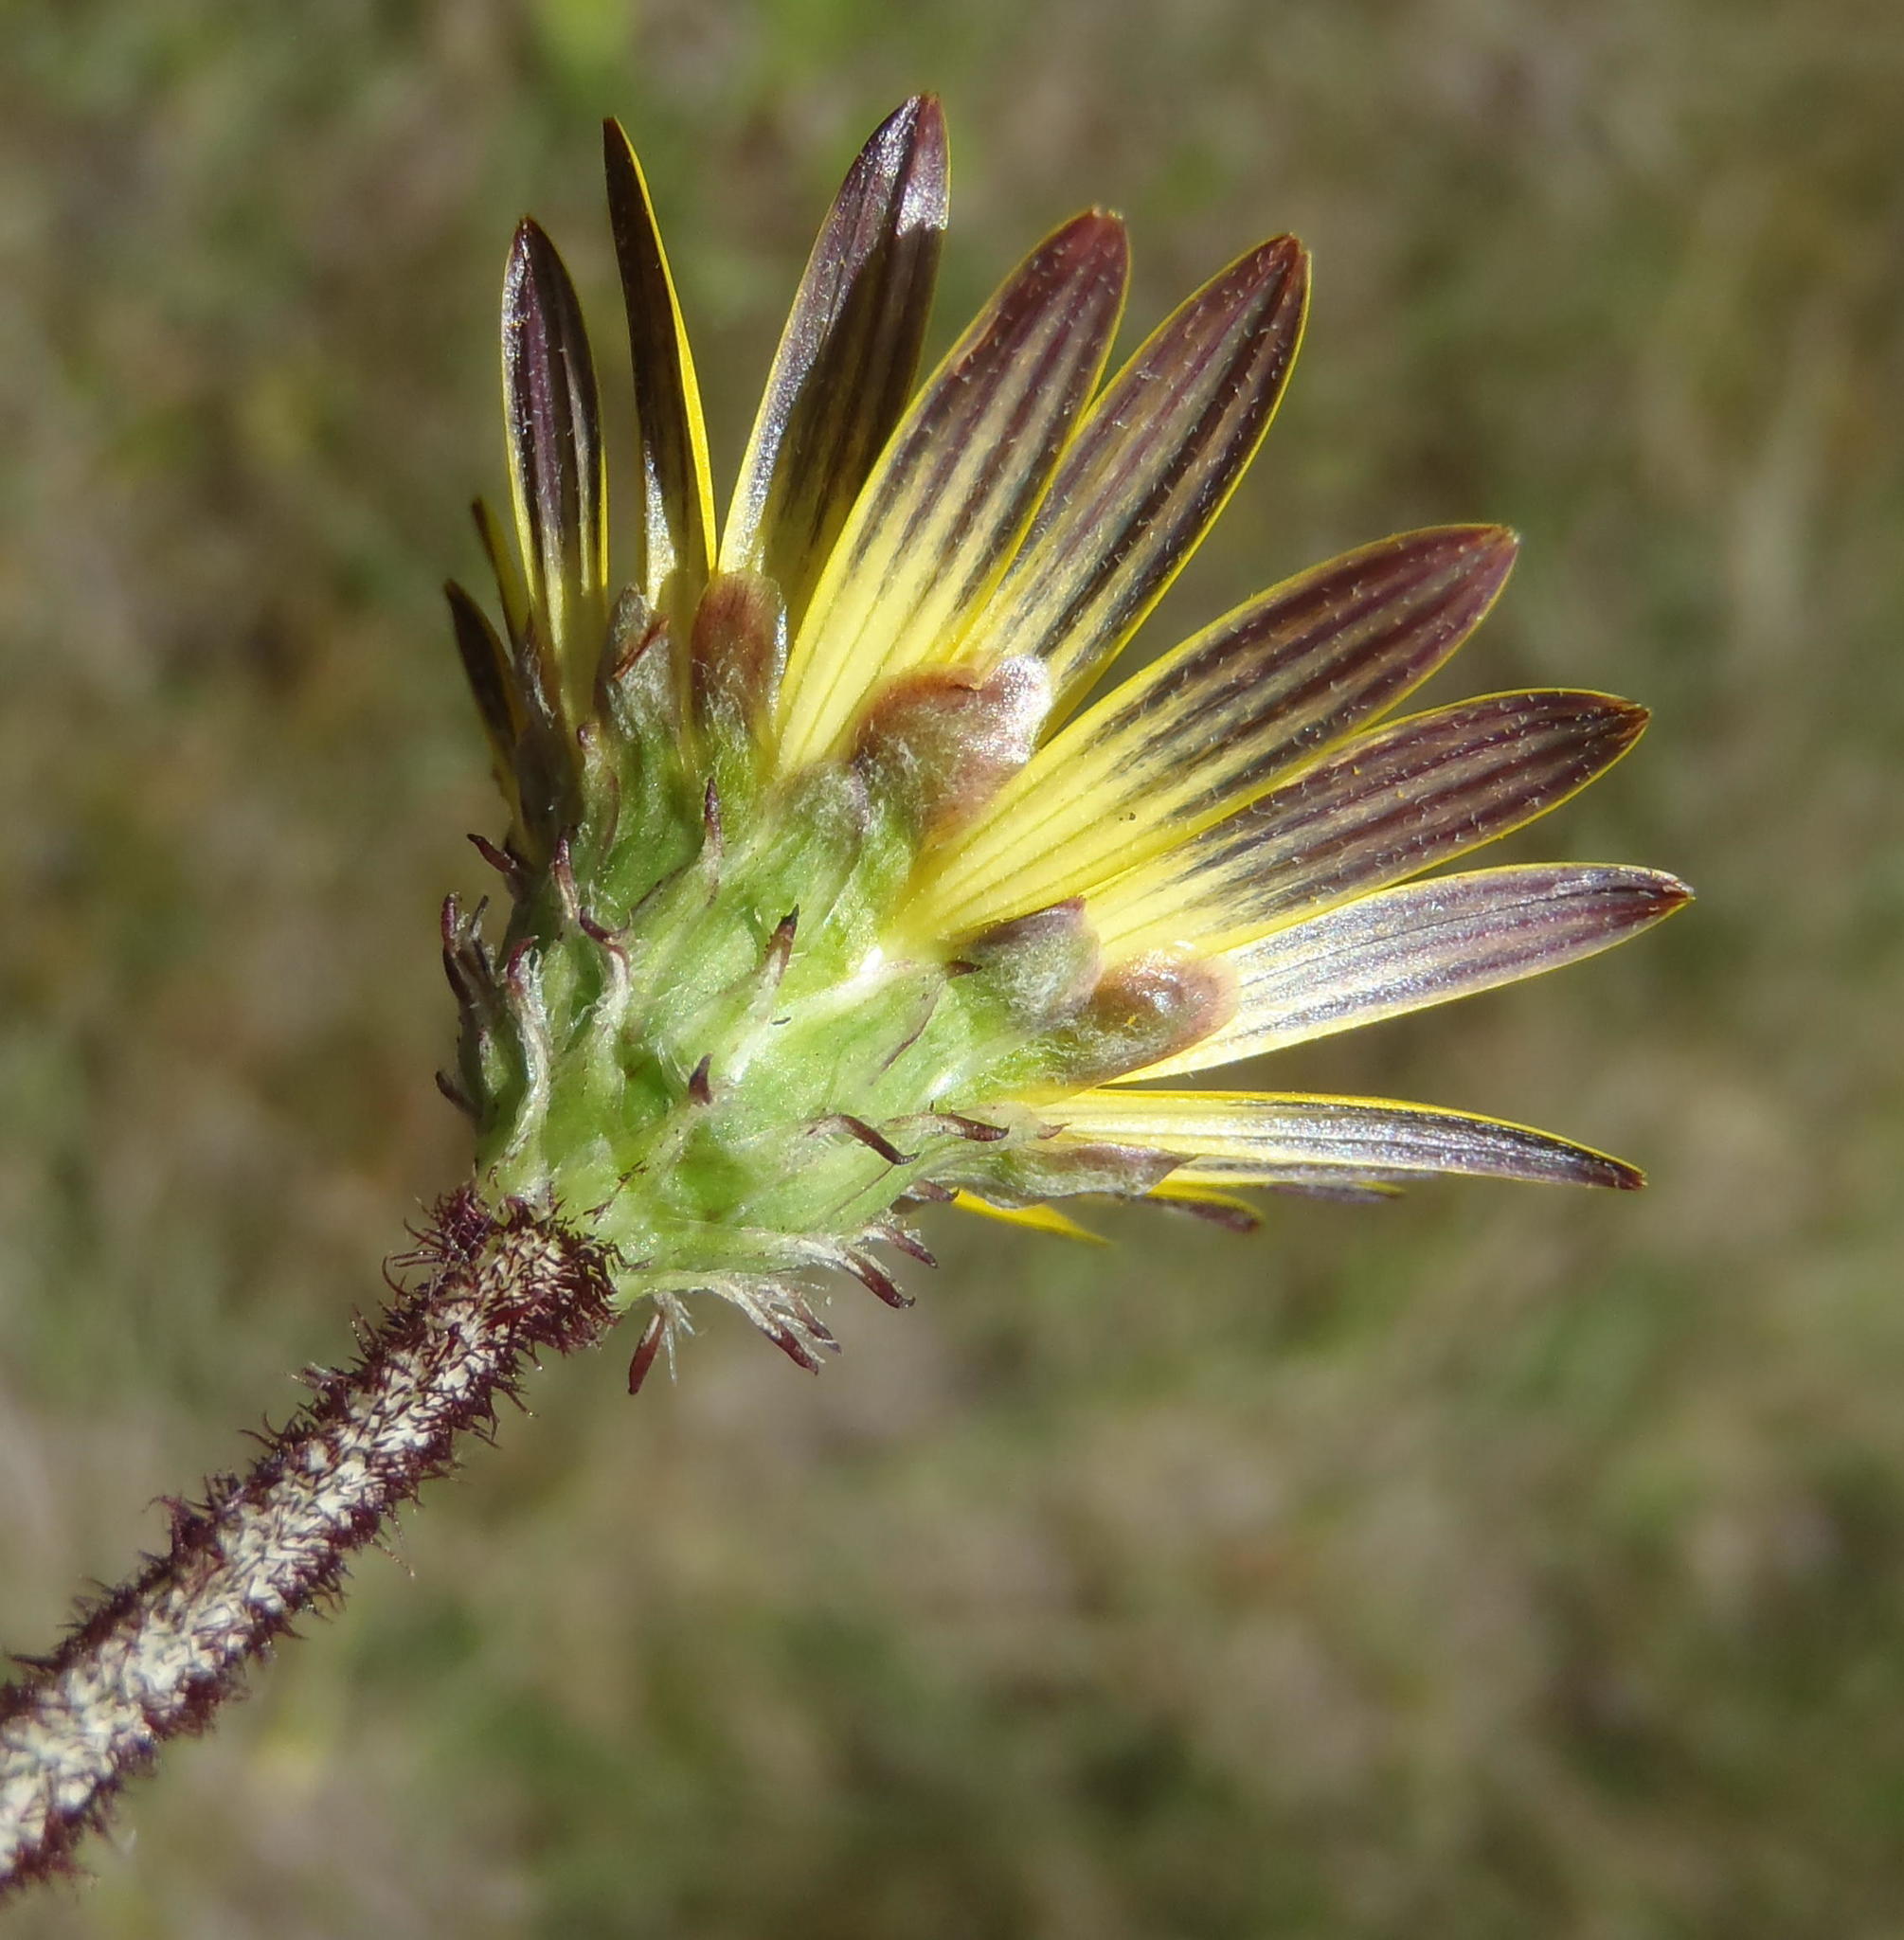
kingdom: Plantae
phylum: Tracheophyta
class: Magnoliopsida
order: Asterales
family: Asteraceae
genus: Arctotheca
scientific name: Arctotheca prostrata
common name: Capeweed
